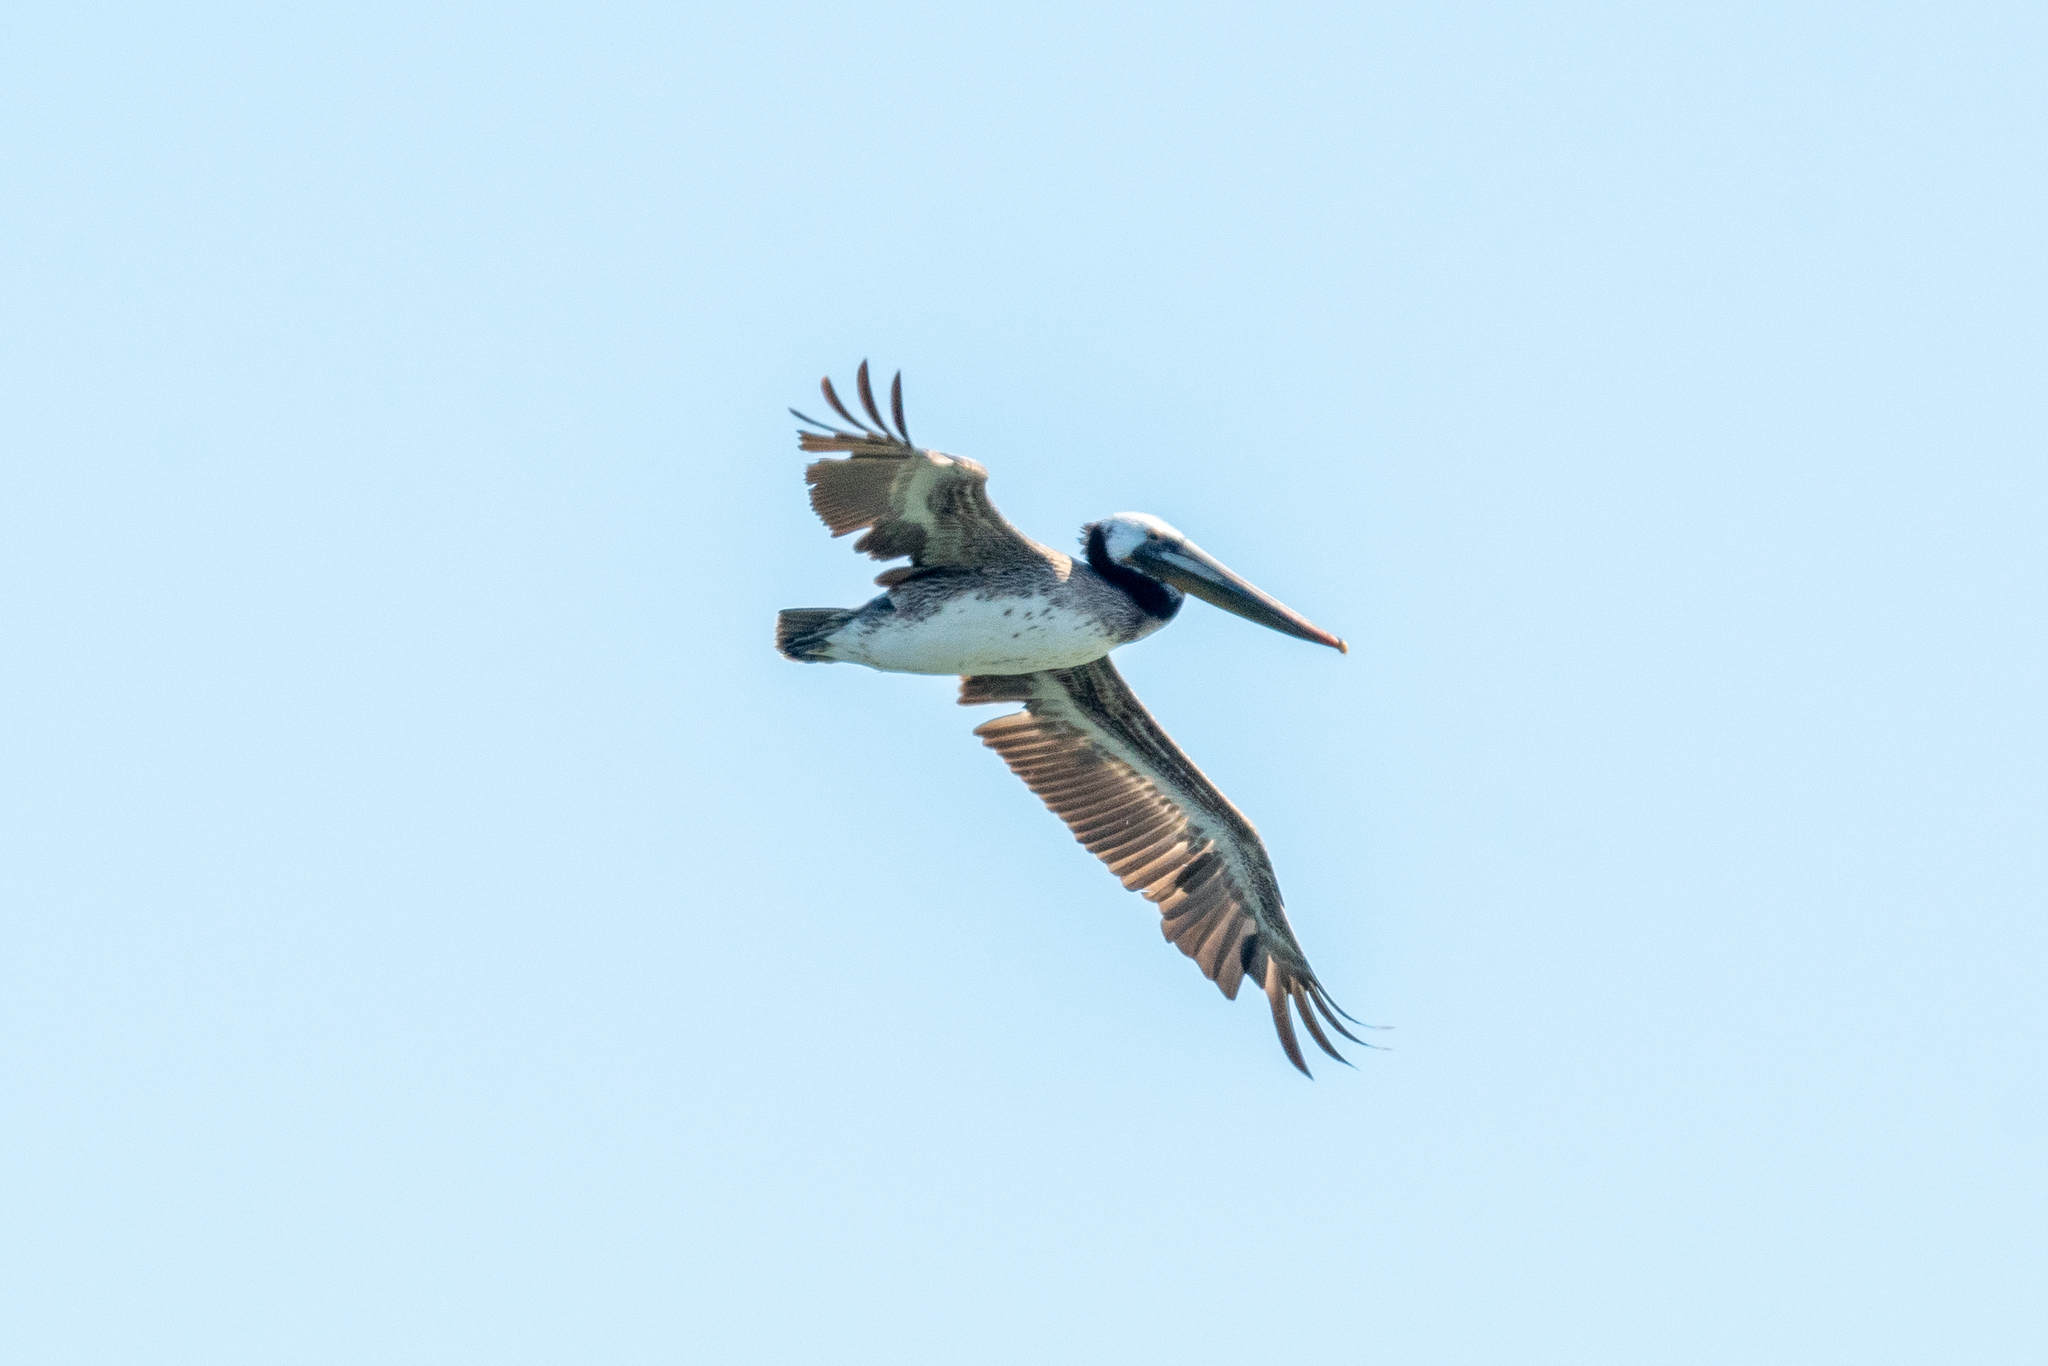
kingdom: Animalia
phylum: Chordata
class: Aves
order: Pelecaniformes
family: Pelecanidae
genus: Pelecanus
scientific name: Pelecanus occidentalis
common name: Brown pelican
